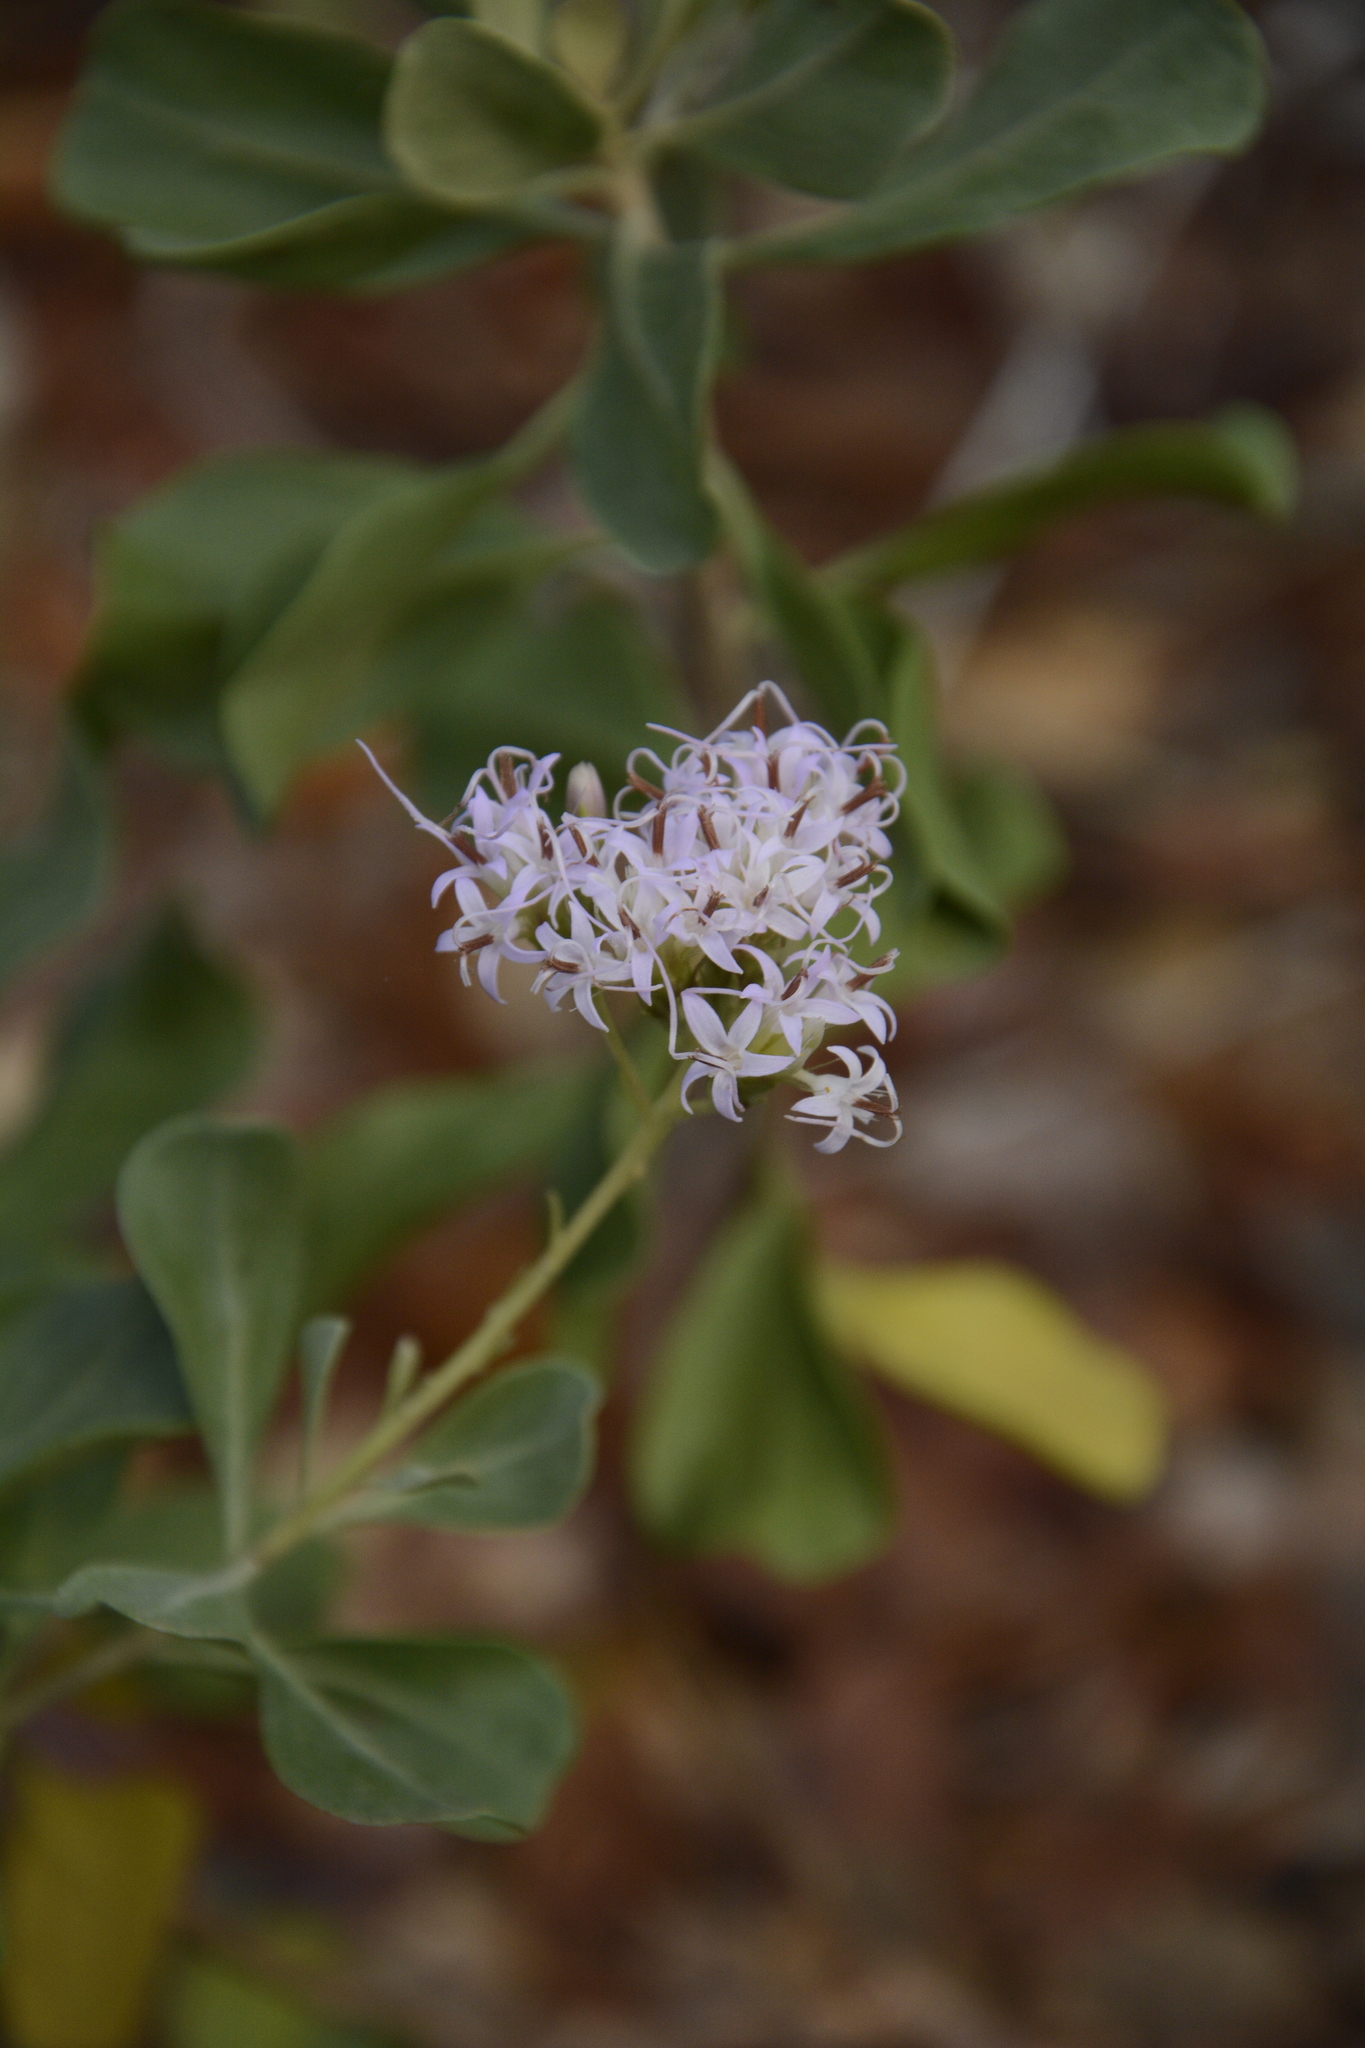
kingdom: Plantae
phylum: Tracheophyta
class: Magnoliopsida
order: Asterales
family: Asteraceae
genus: Garberia
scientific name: Garberia heterophylla
